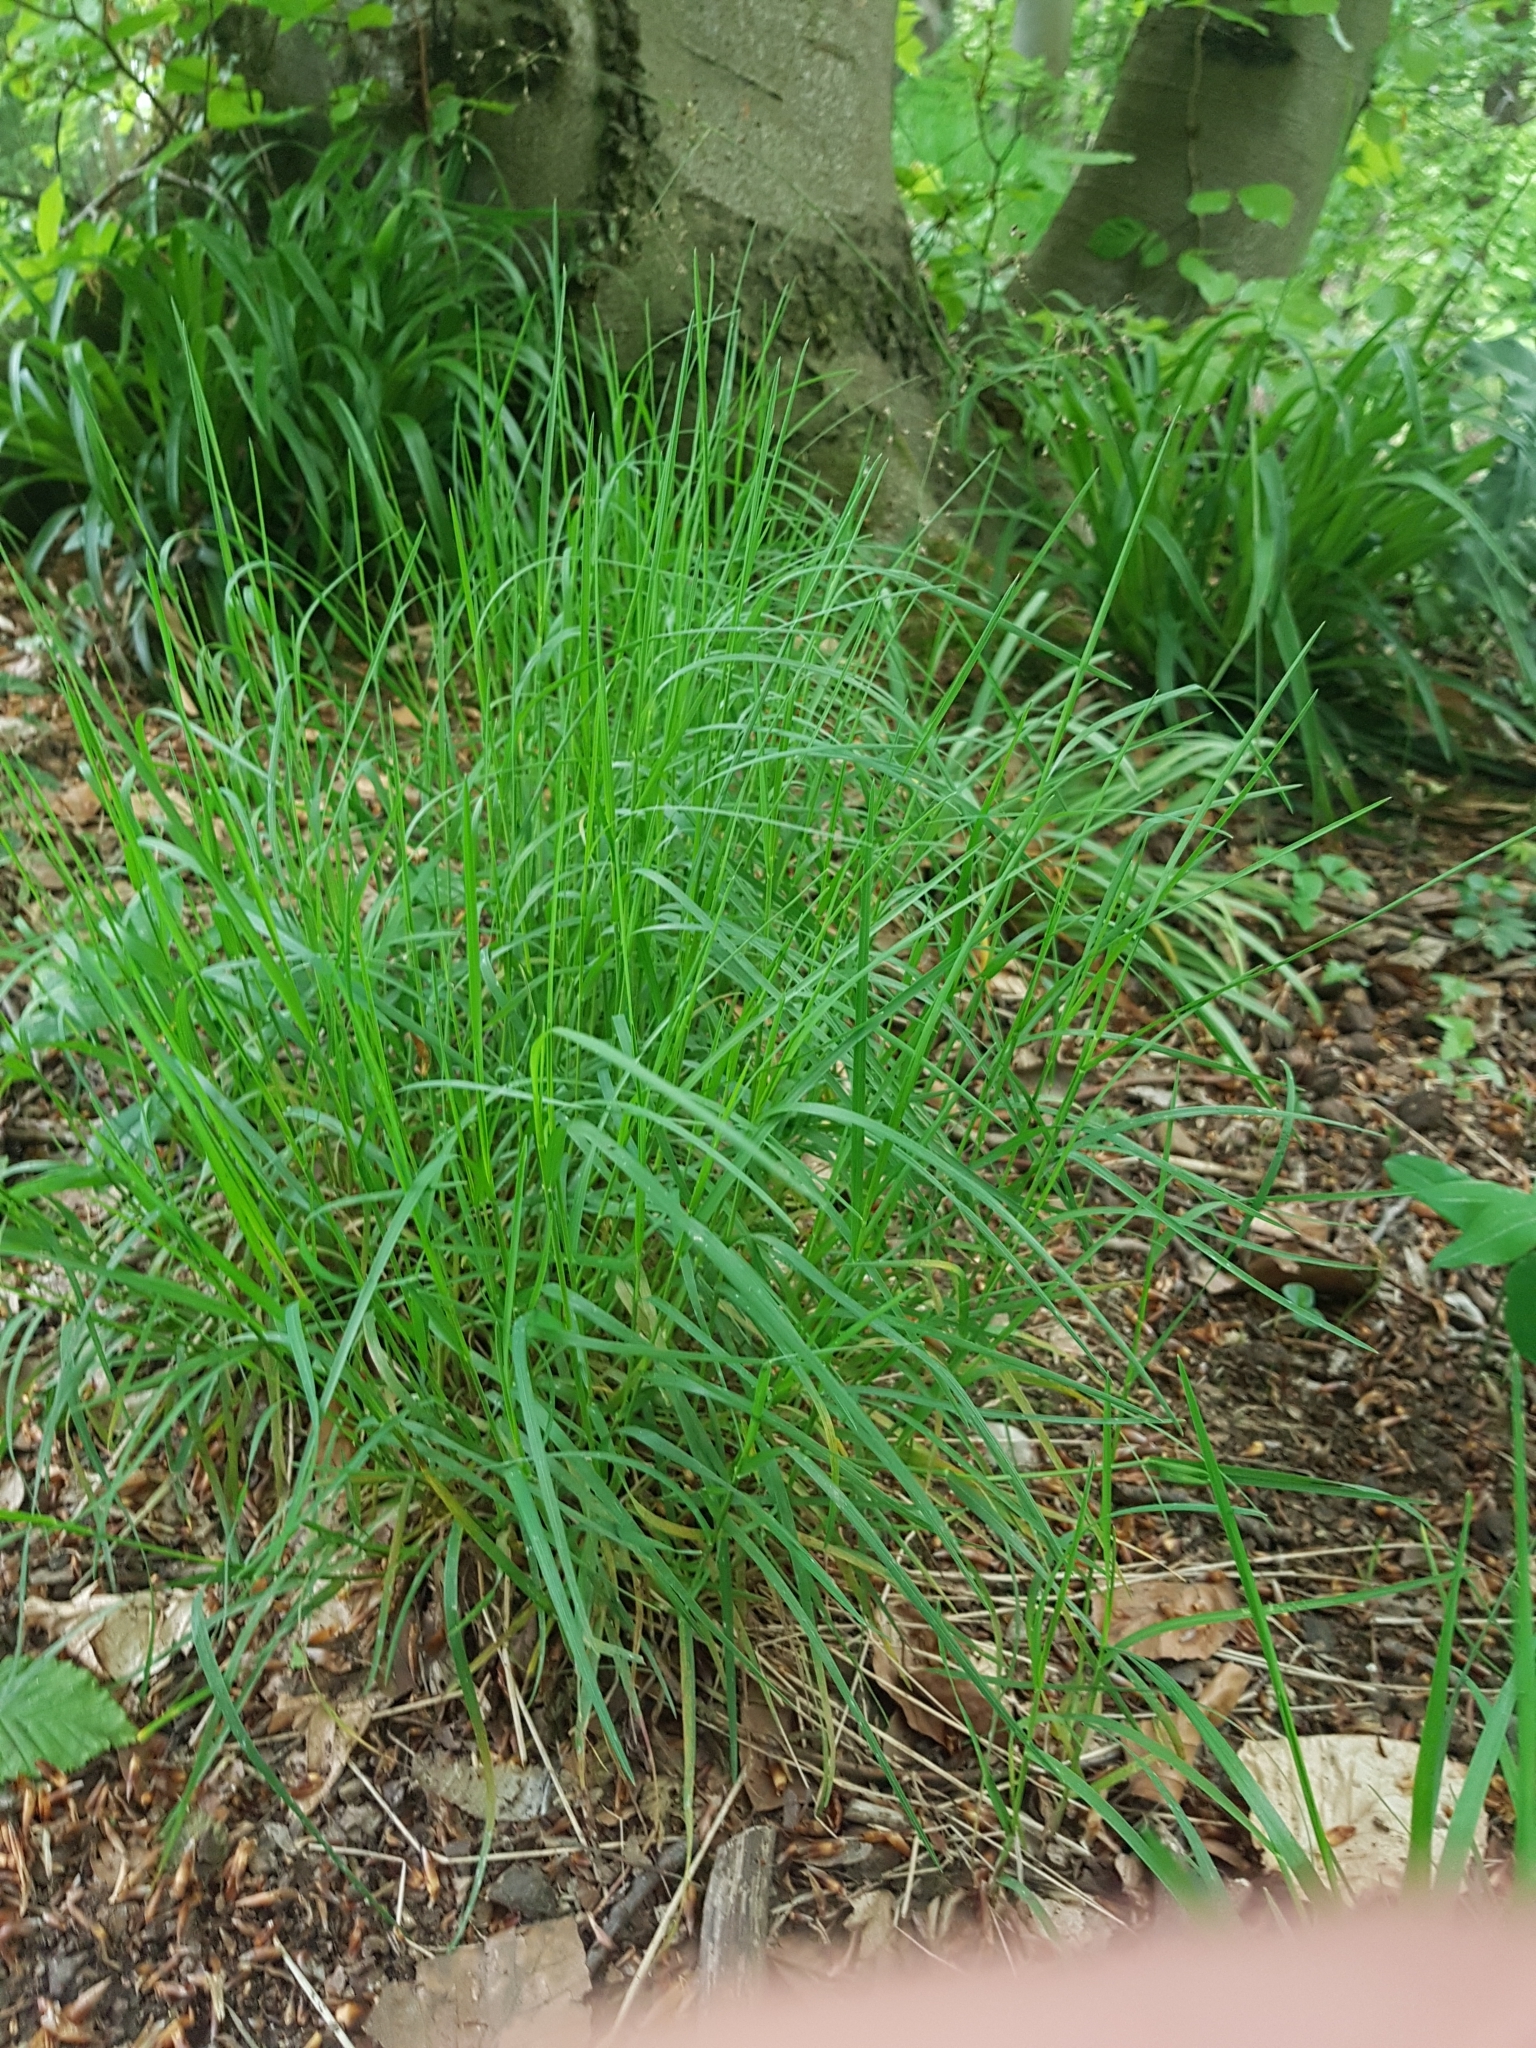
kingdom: Plantae
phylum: Tracheophyta
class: Liliopsida
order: Poales
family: Poaceae
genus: Poa
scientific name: Poa nemoralis
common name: Wood bluegrass
